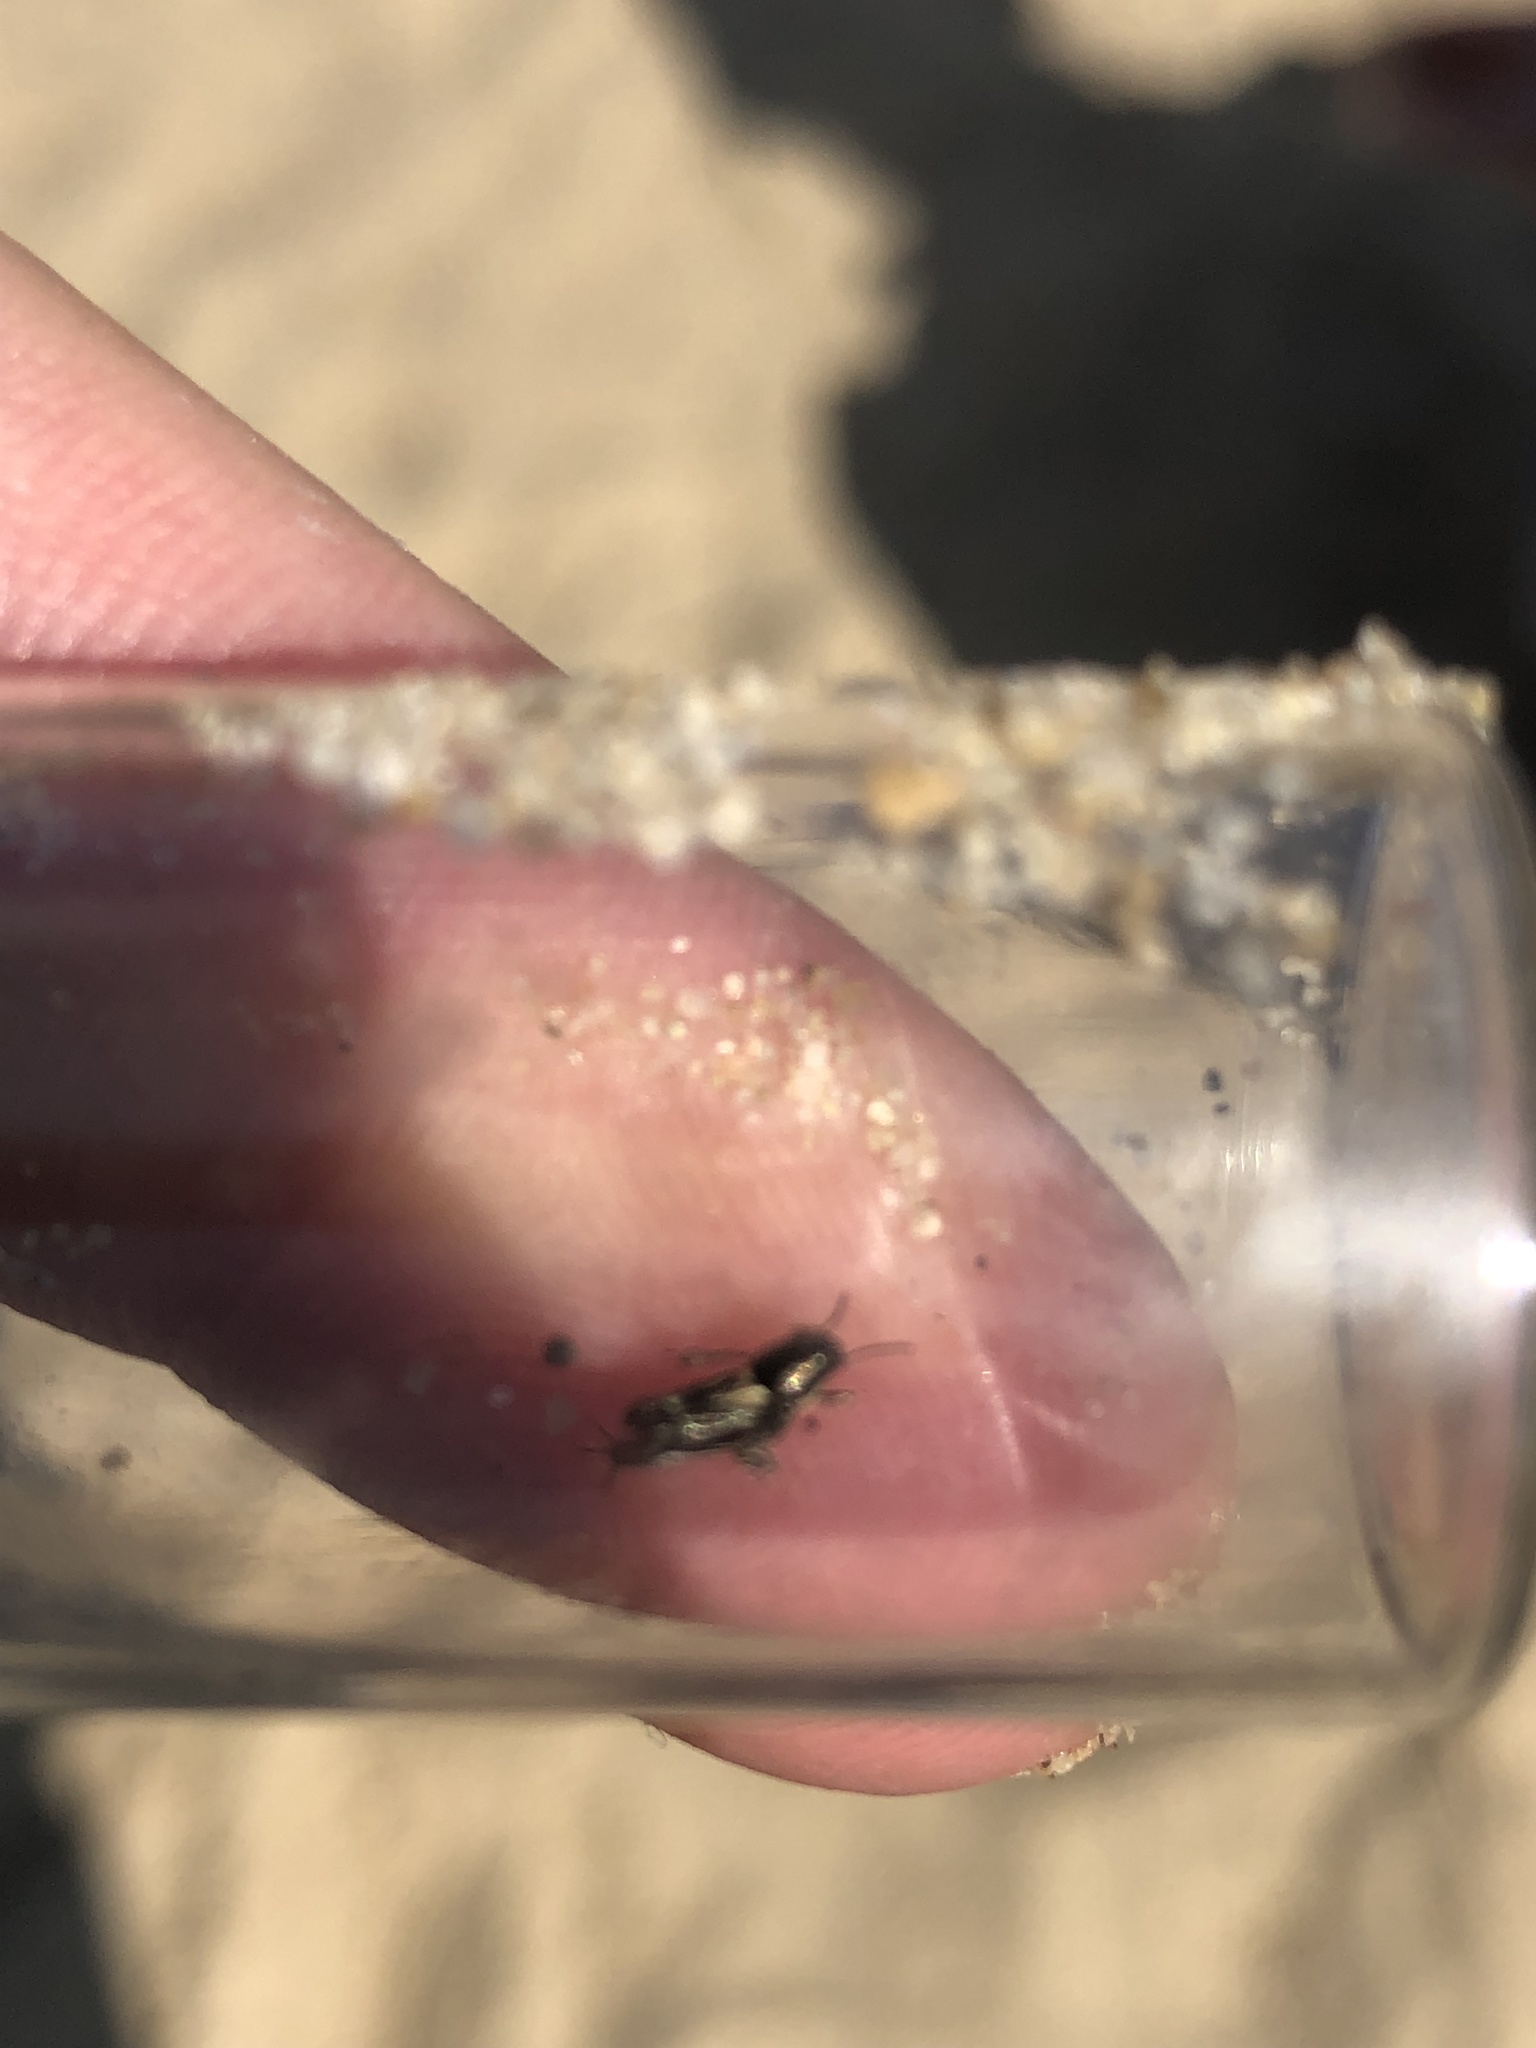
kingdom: Animalia
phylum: Arthropoda
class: Insecta
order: Orthoptera
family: Tridactylidae
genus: Xya
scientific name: Xya variegata
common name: Le tridactyle panaché
